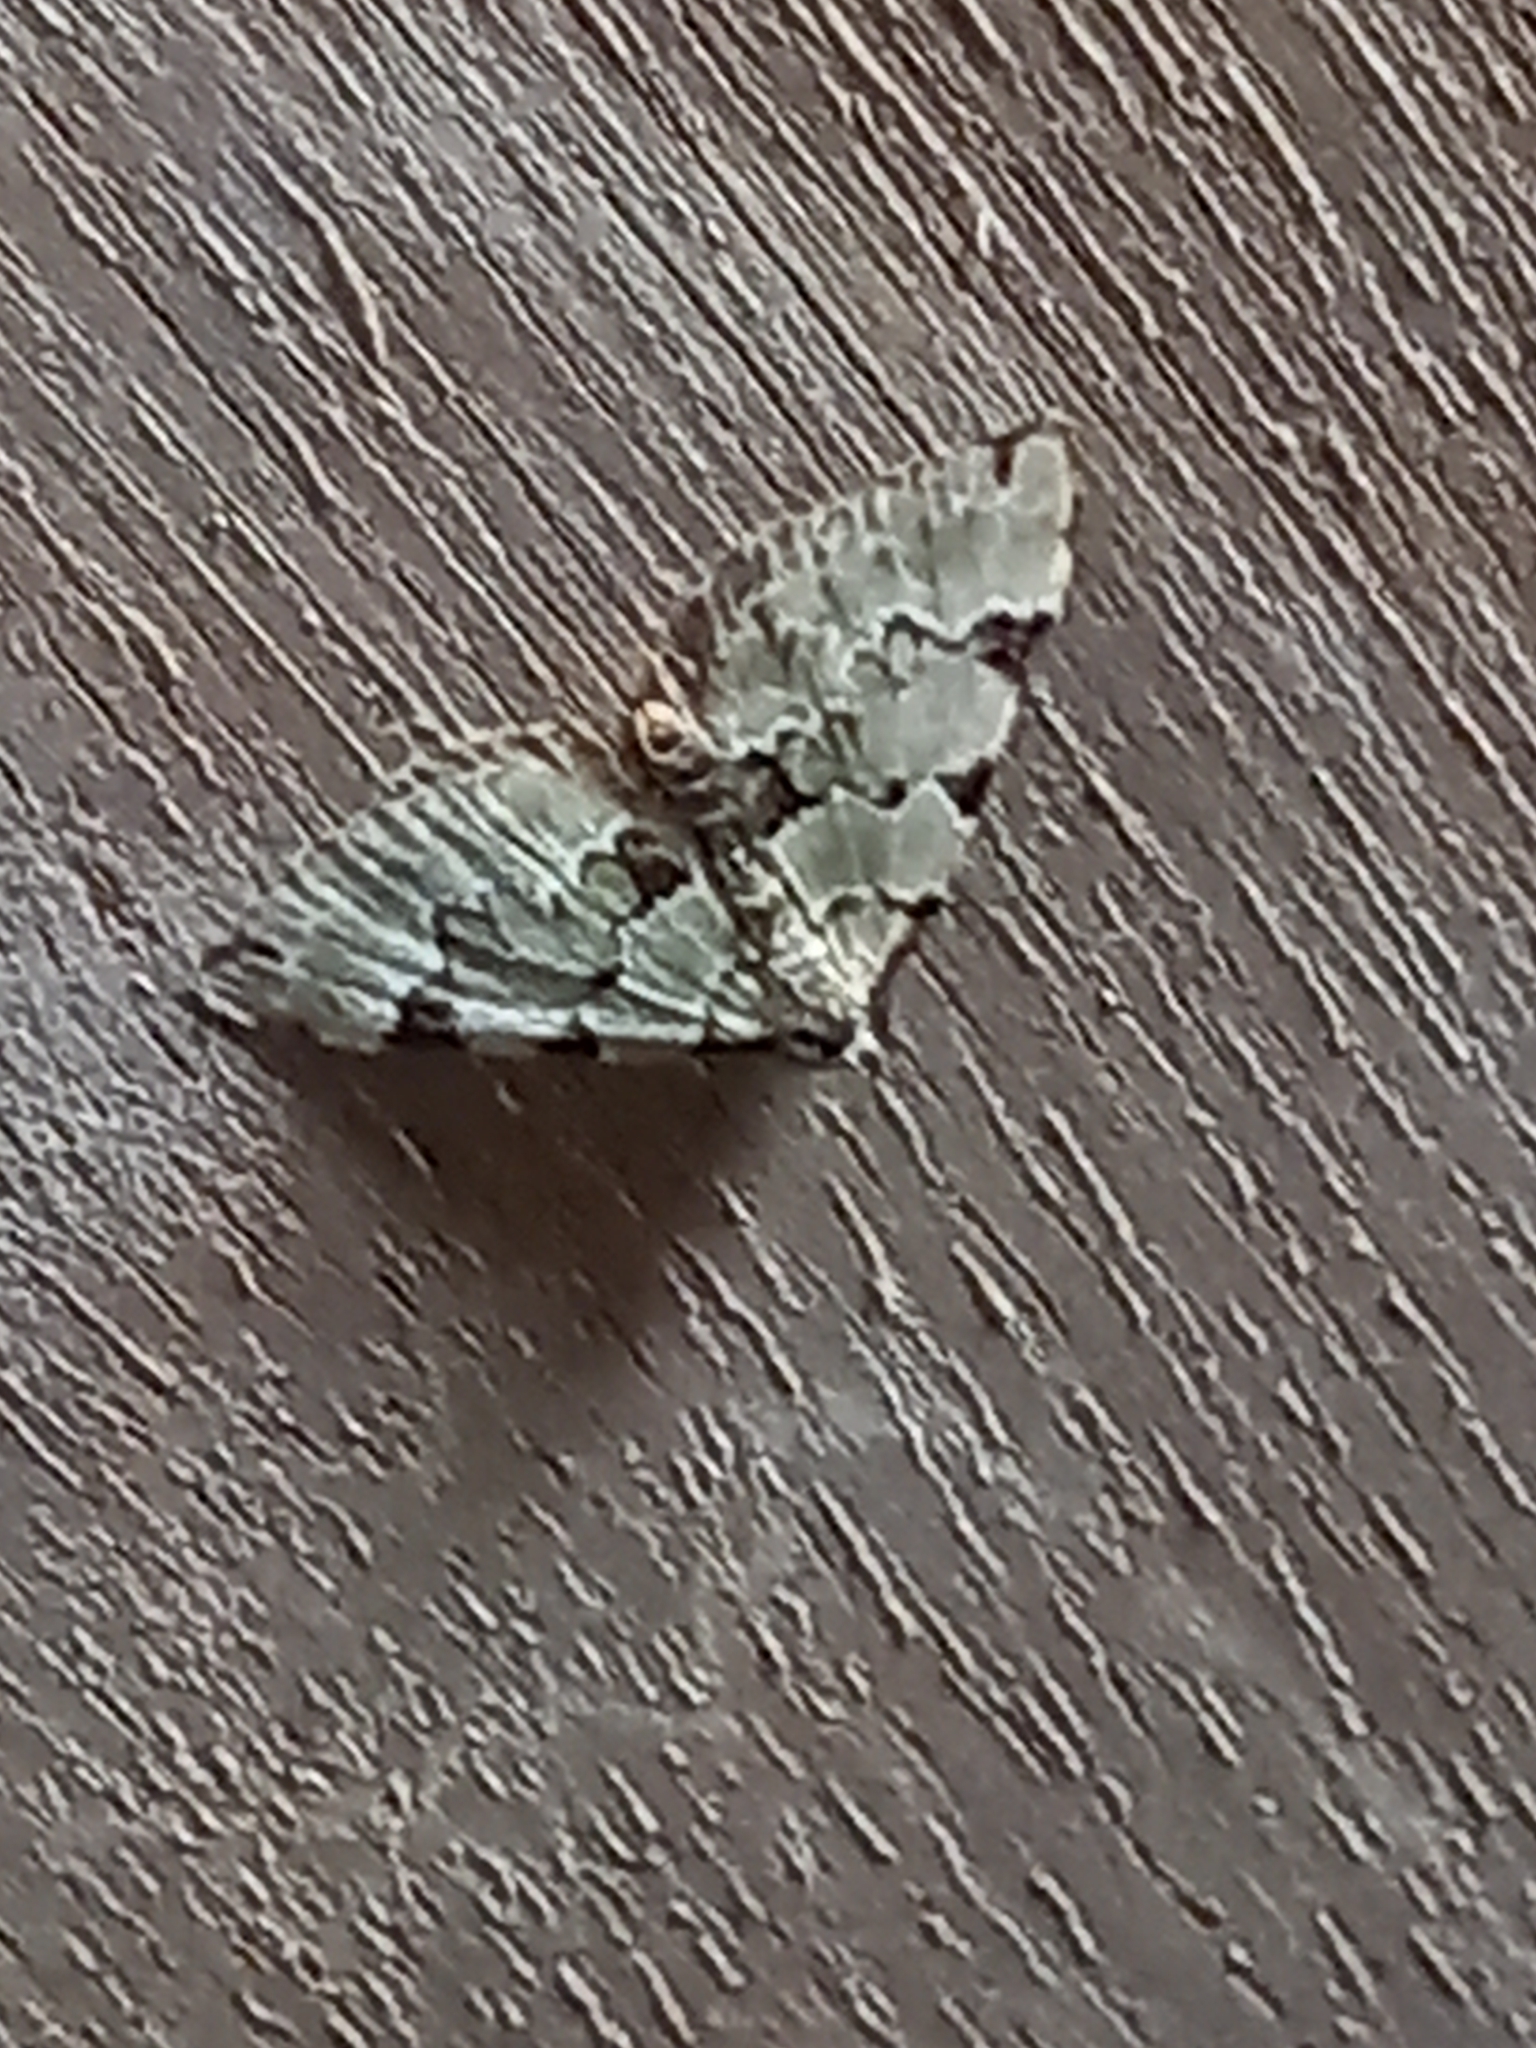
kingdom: Animalia
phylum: Arthropoda
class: Insecta
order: Lepidoptera
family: Geometridae
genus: Colostygia
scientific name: Colostygia pectinataria
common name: Green carpet
